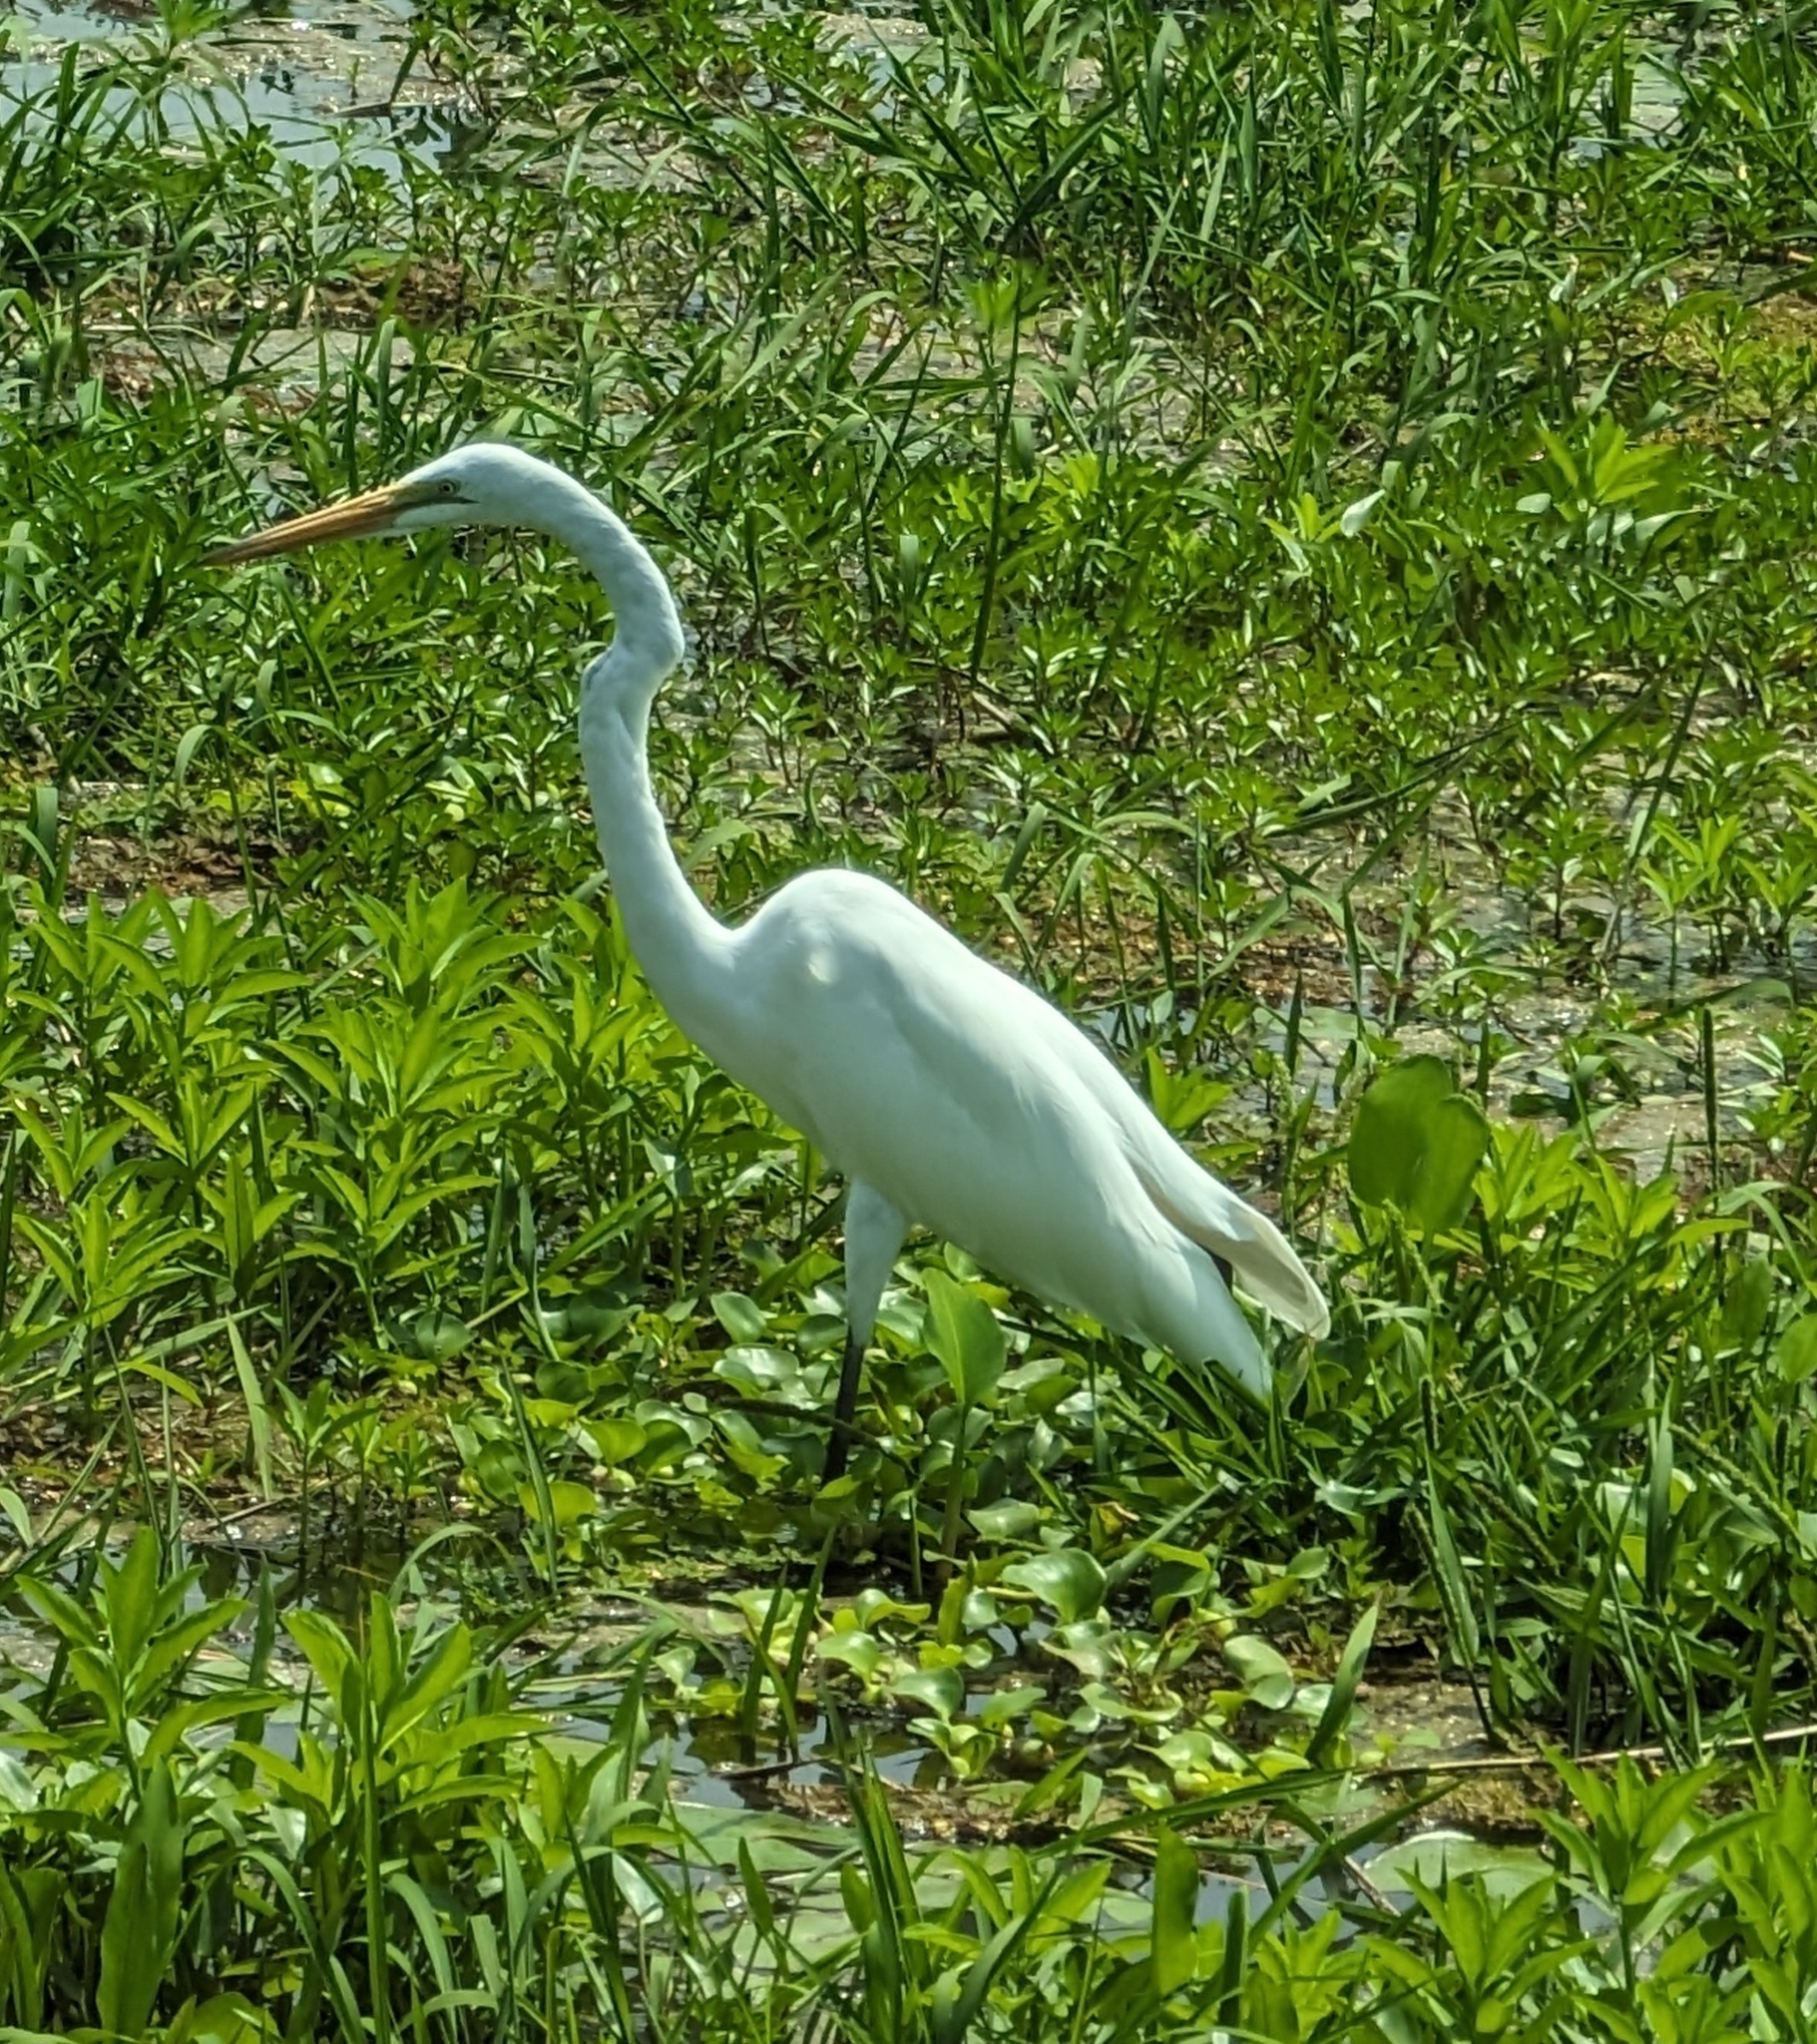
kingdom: Animalia
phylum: Chordata
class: Aves
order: Pelecaniformes
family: Ardeidae
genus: Ardea
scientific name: Ardea alba
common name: Great egret
